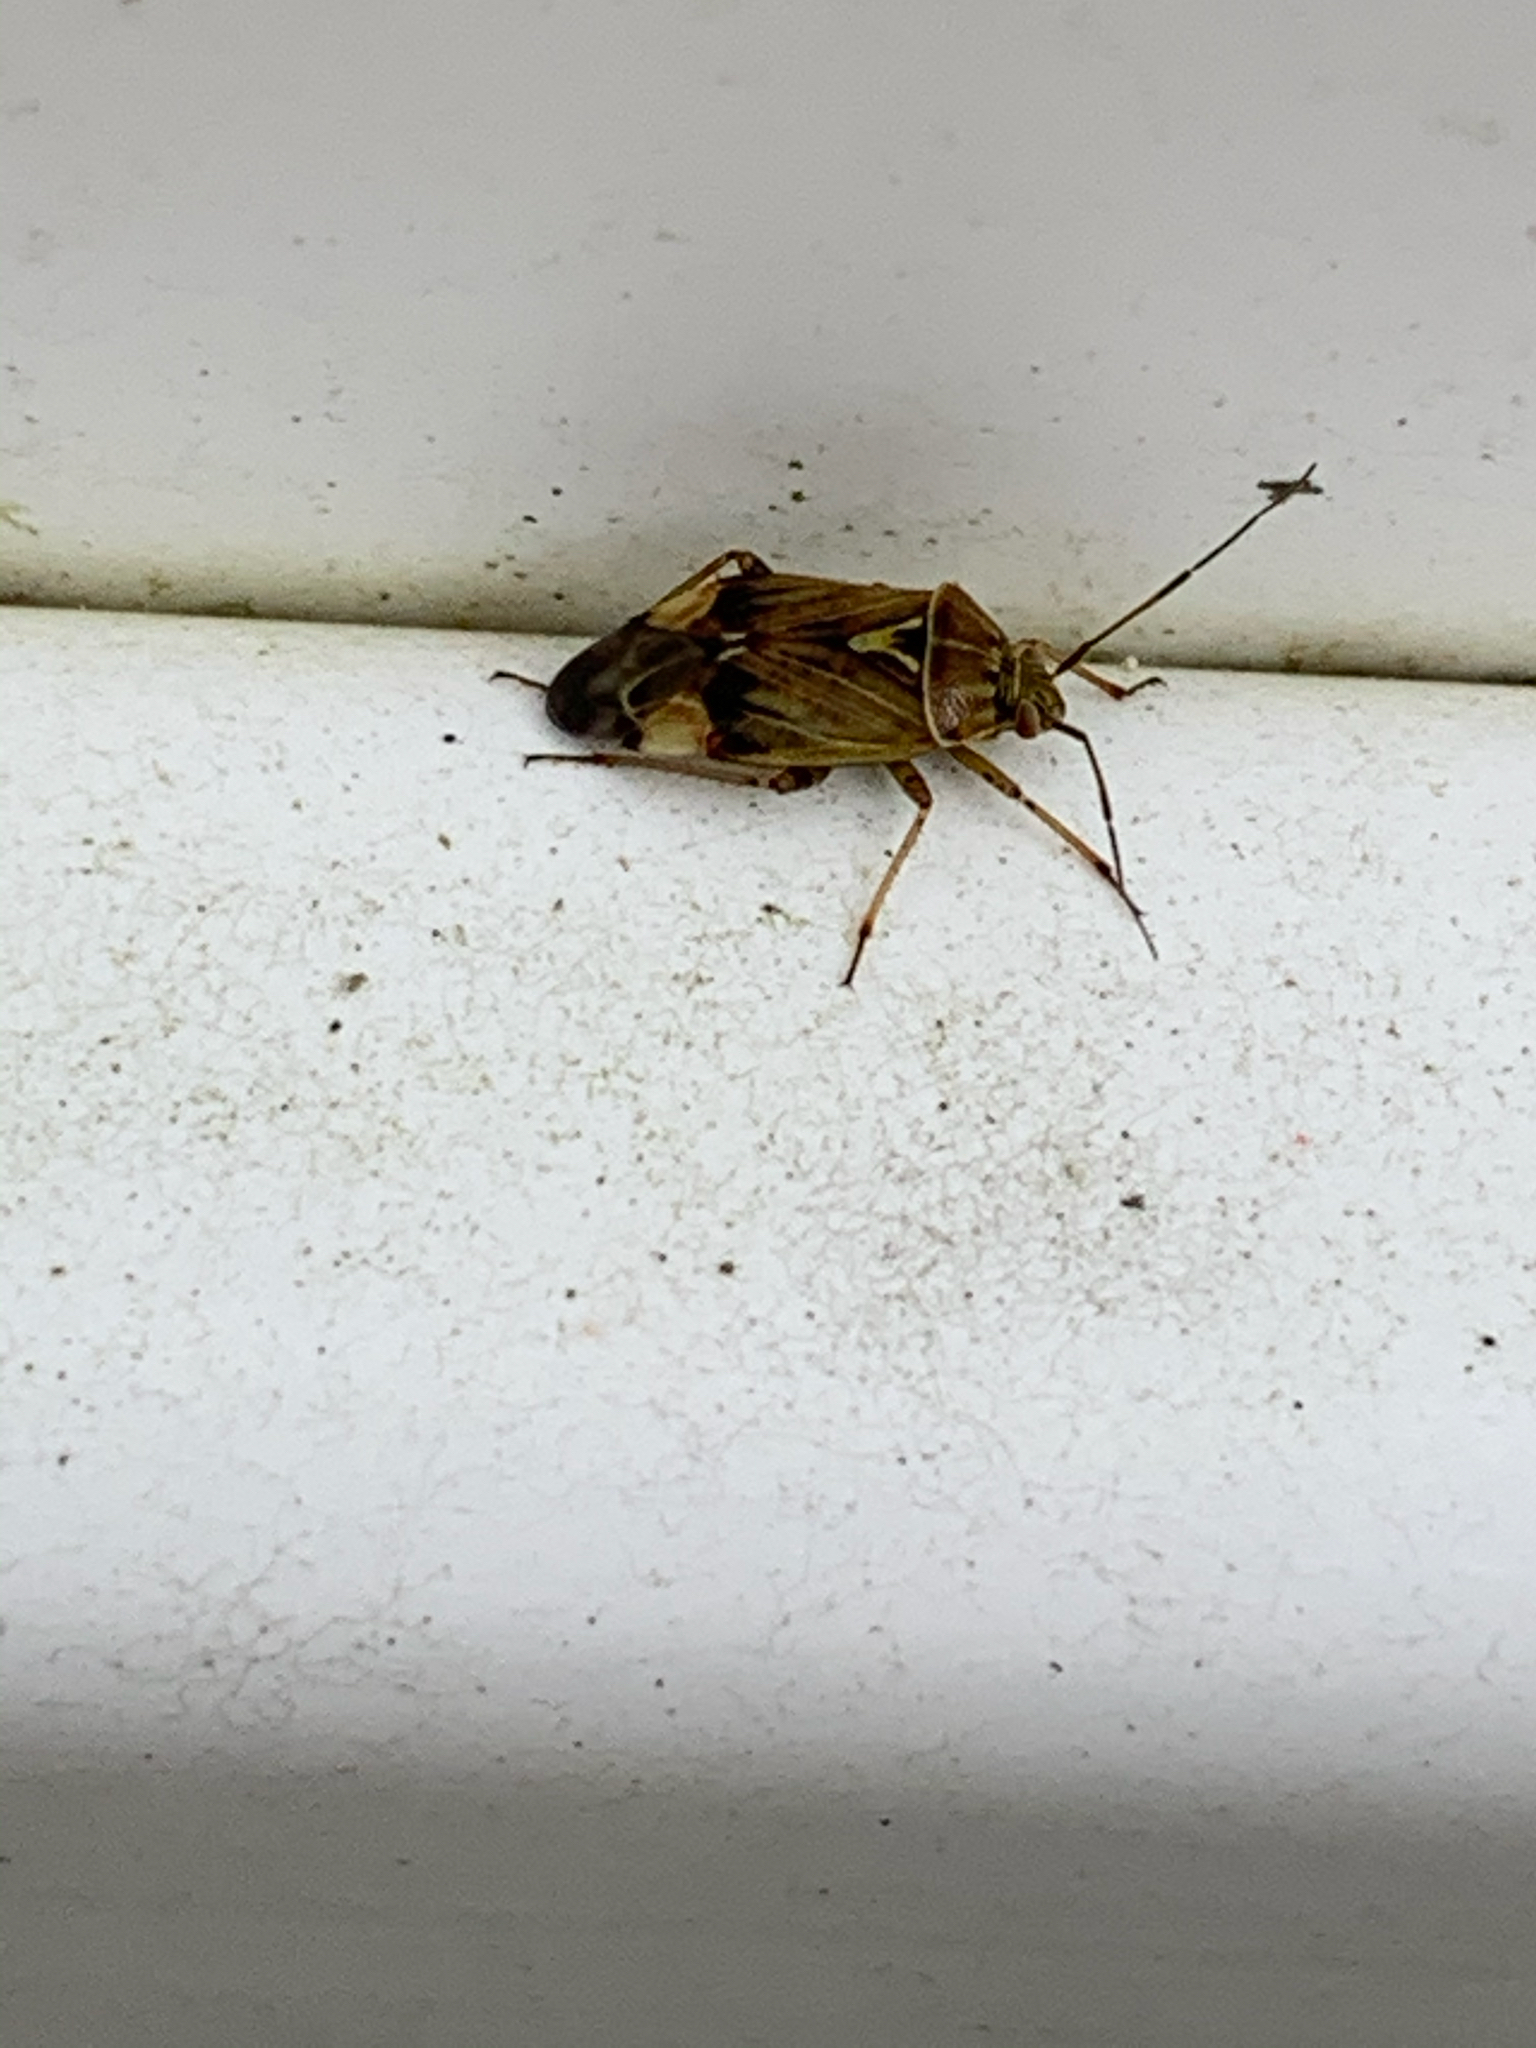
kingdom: Animalia
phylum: Arthropoda
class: Insecta
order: Hemiptera
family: Miridae
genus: Lygus
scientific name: Lygus lineolaris
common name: North american tarnished plant bug
